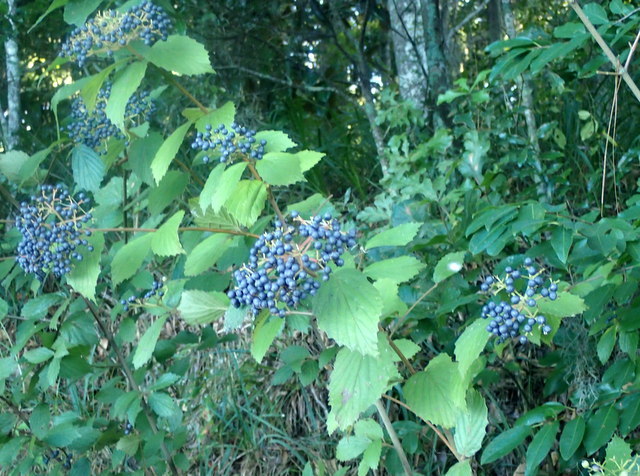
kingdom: Plantae
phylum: Tracheophyta
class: Magnoliopsida
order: Dipsacales
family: Viburnaceae
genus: Viburnum
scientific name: Viburnum scabrellum
